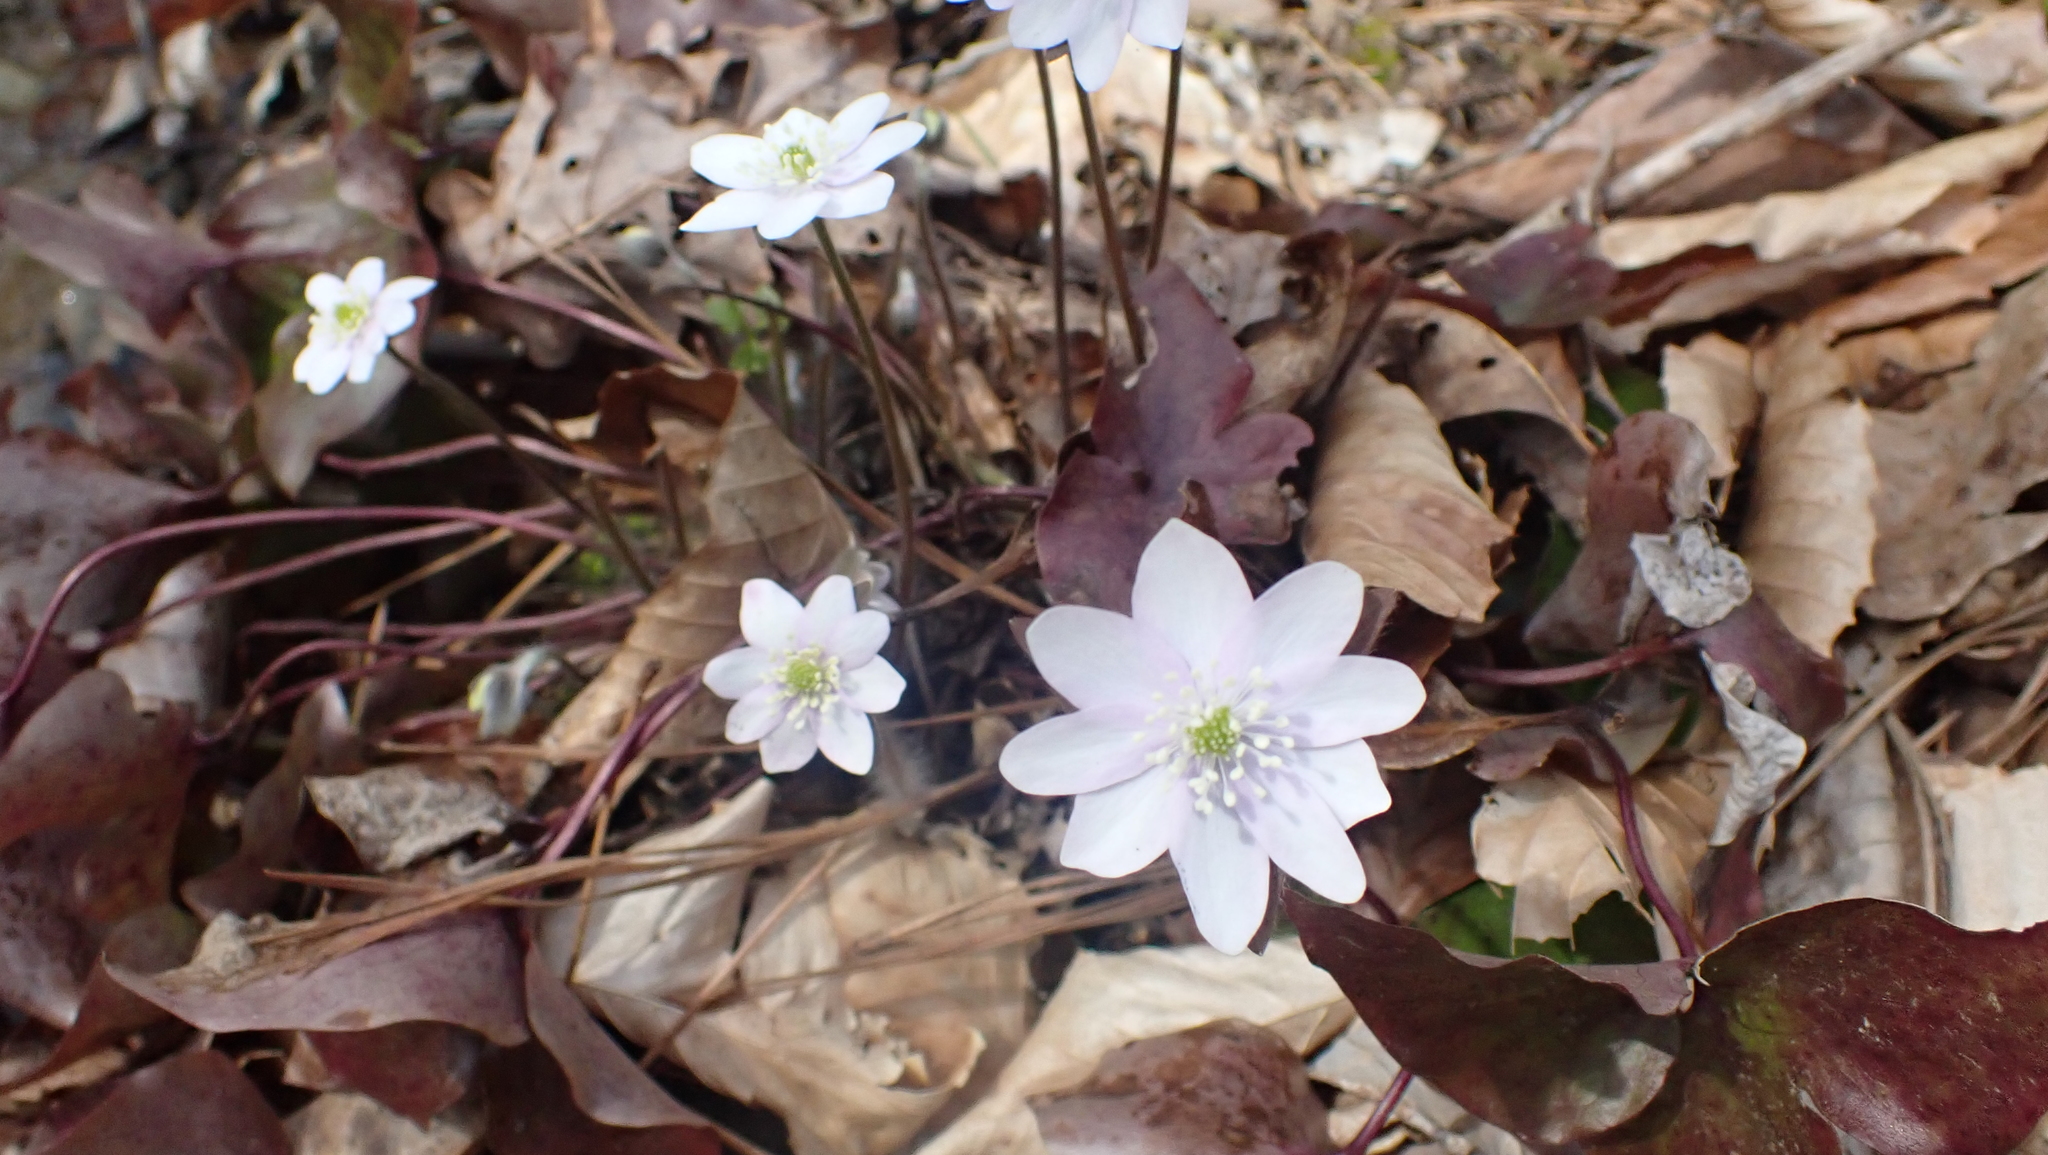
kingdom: Plantae
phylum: Tracheophyta
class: Magnoliopsida
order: Ranunculales
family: Ranunculaceae
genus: Hepatica
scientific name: Hepatica acutiloba
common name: Sharp-lobed hepatica
